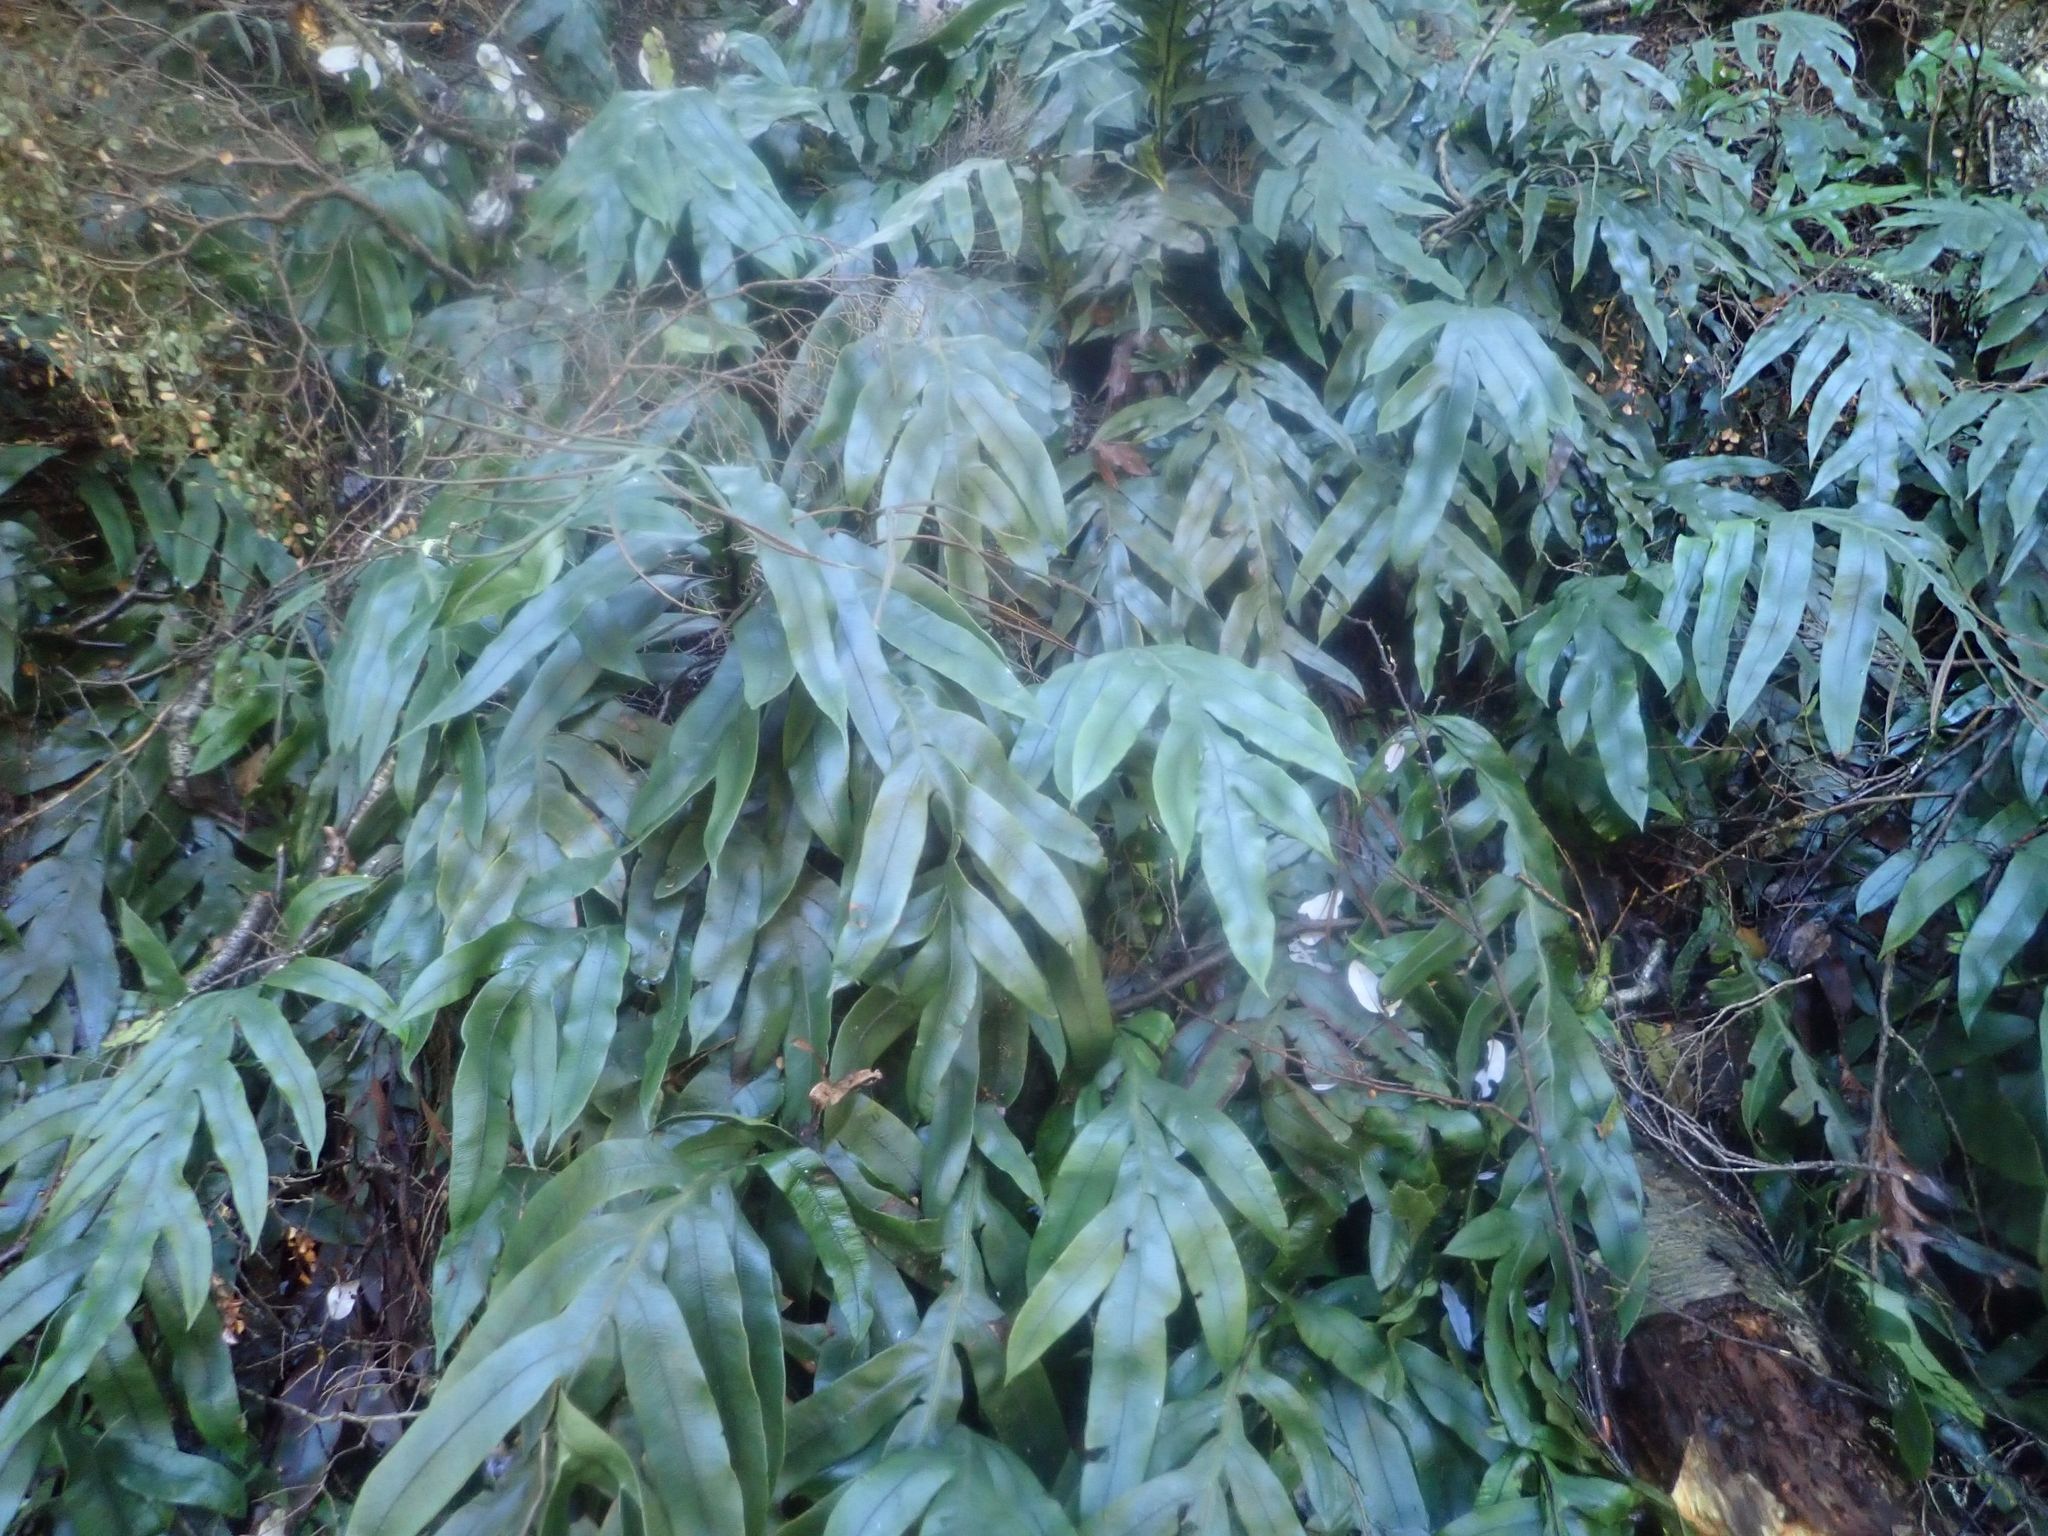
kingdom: Plantae
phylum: Tracheophyta
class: Polypodiopsida
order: Polypodiales
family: Blechnaceae
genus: Austroblechnum
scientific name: Austroblechnum colensoi
